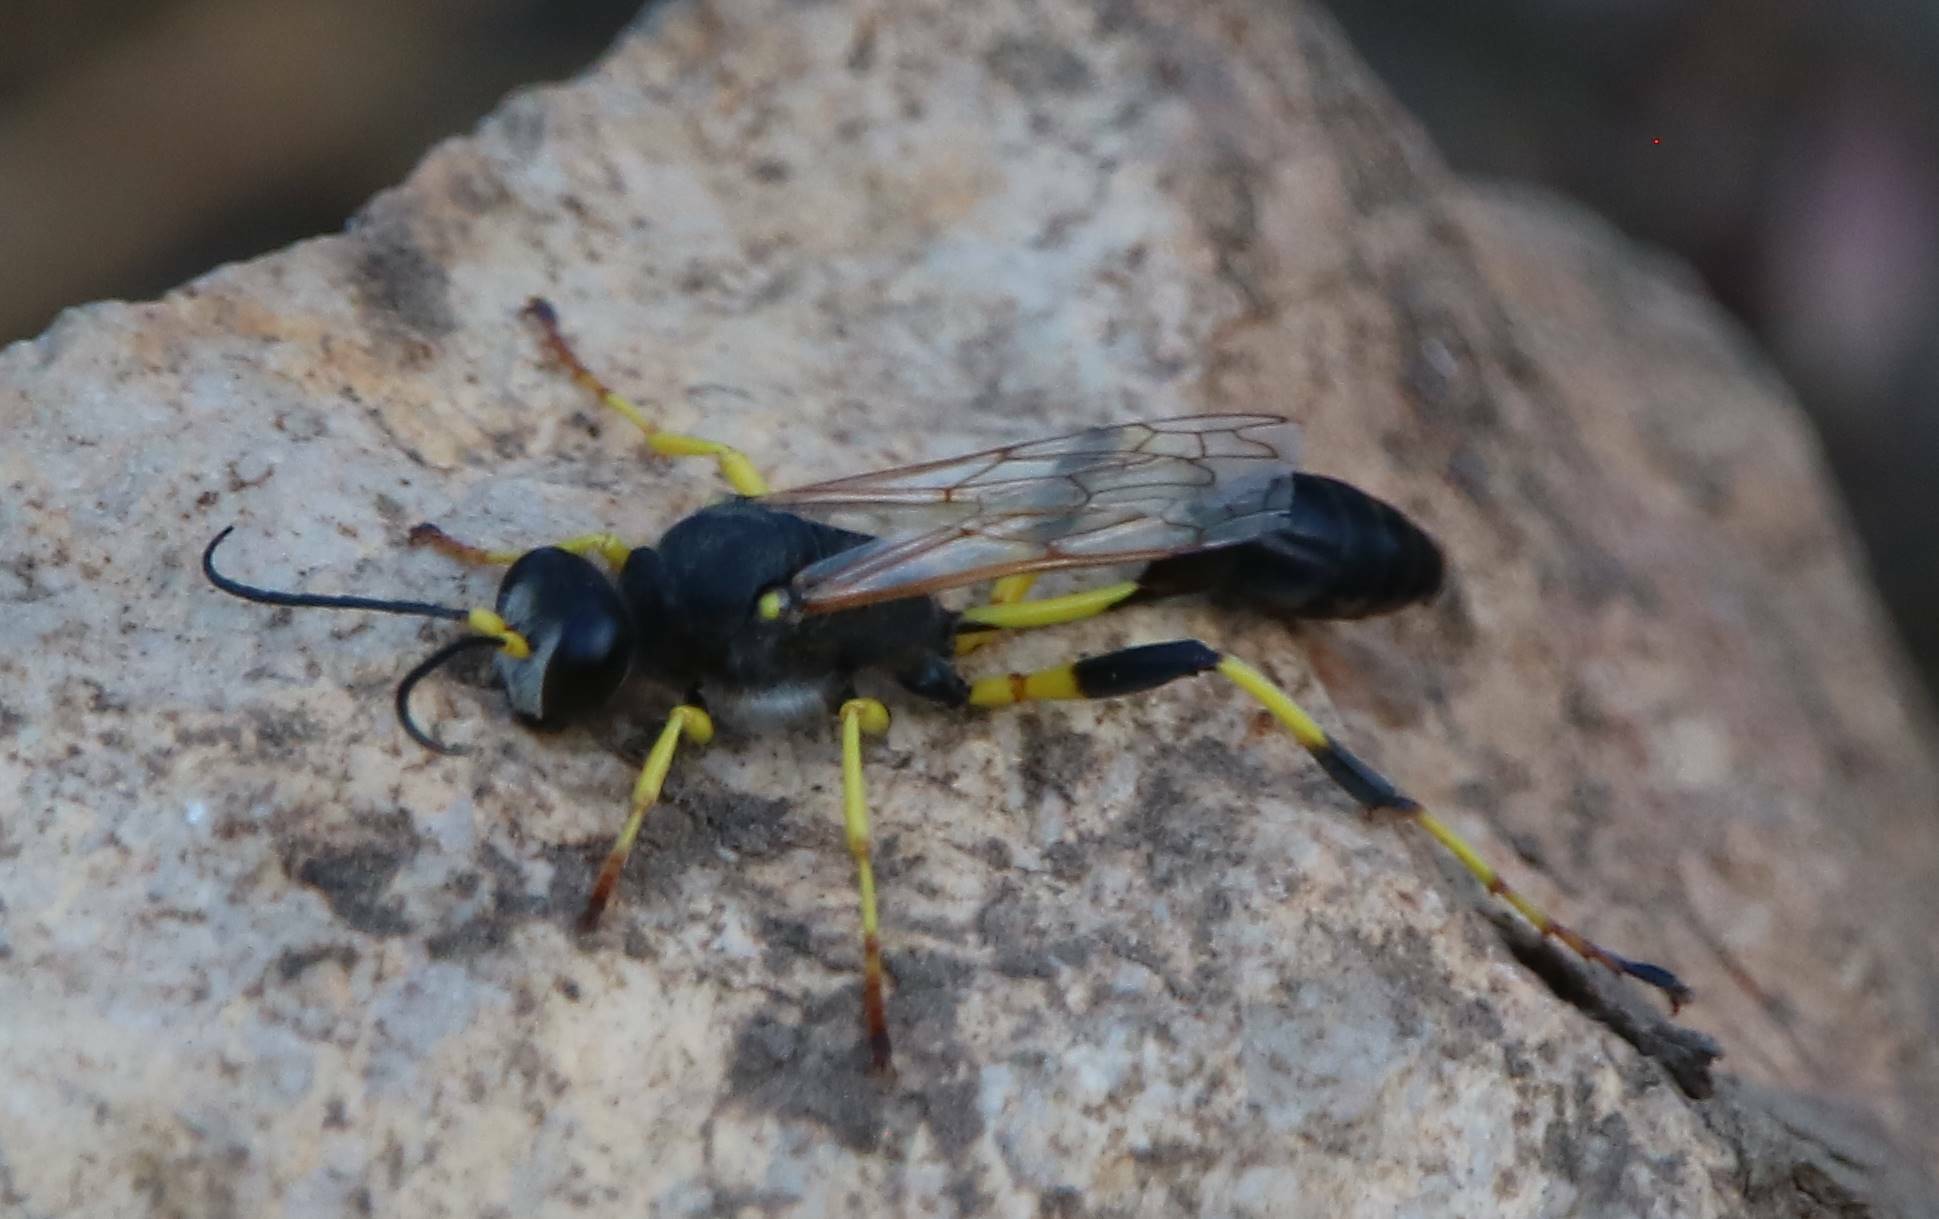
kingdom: Animalia
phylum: Arthropoda
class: Insecta
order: Hymenoptera
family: Sphecidae
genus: Sceliphron
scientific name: Sceliphron destillatorium
